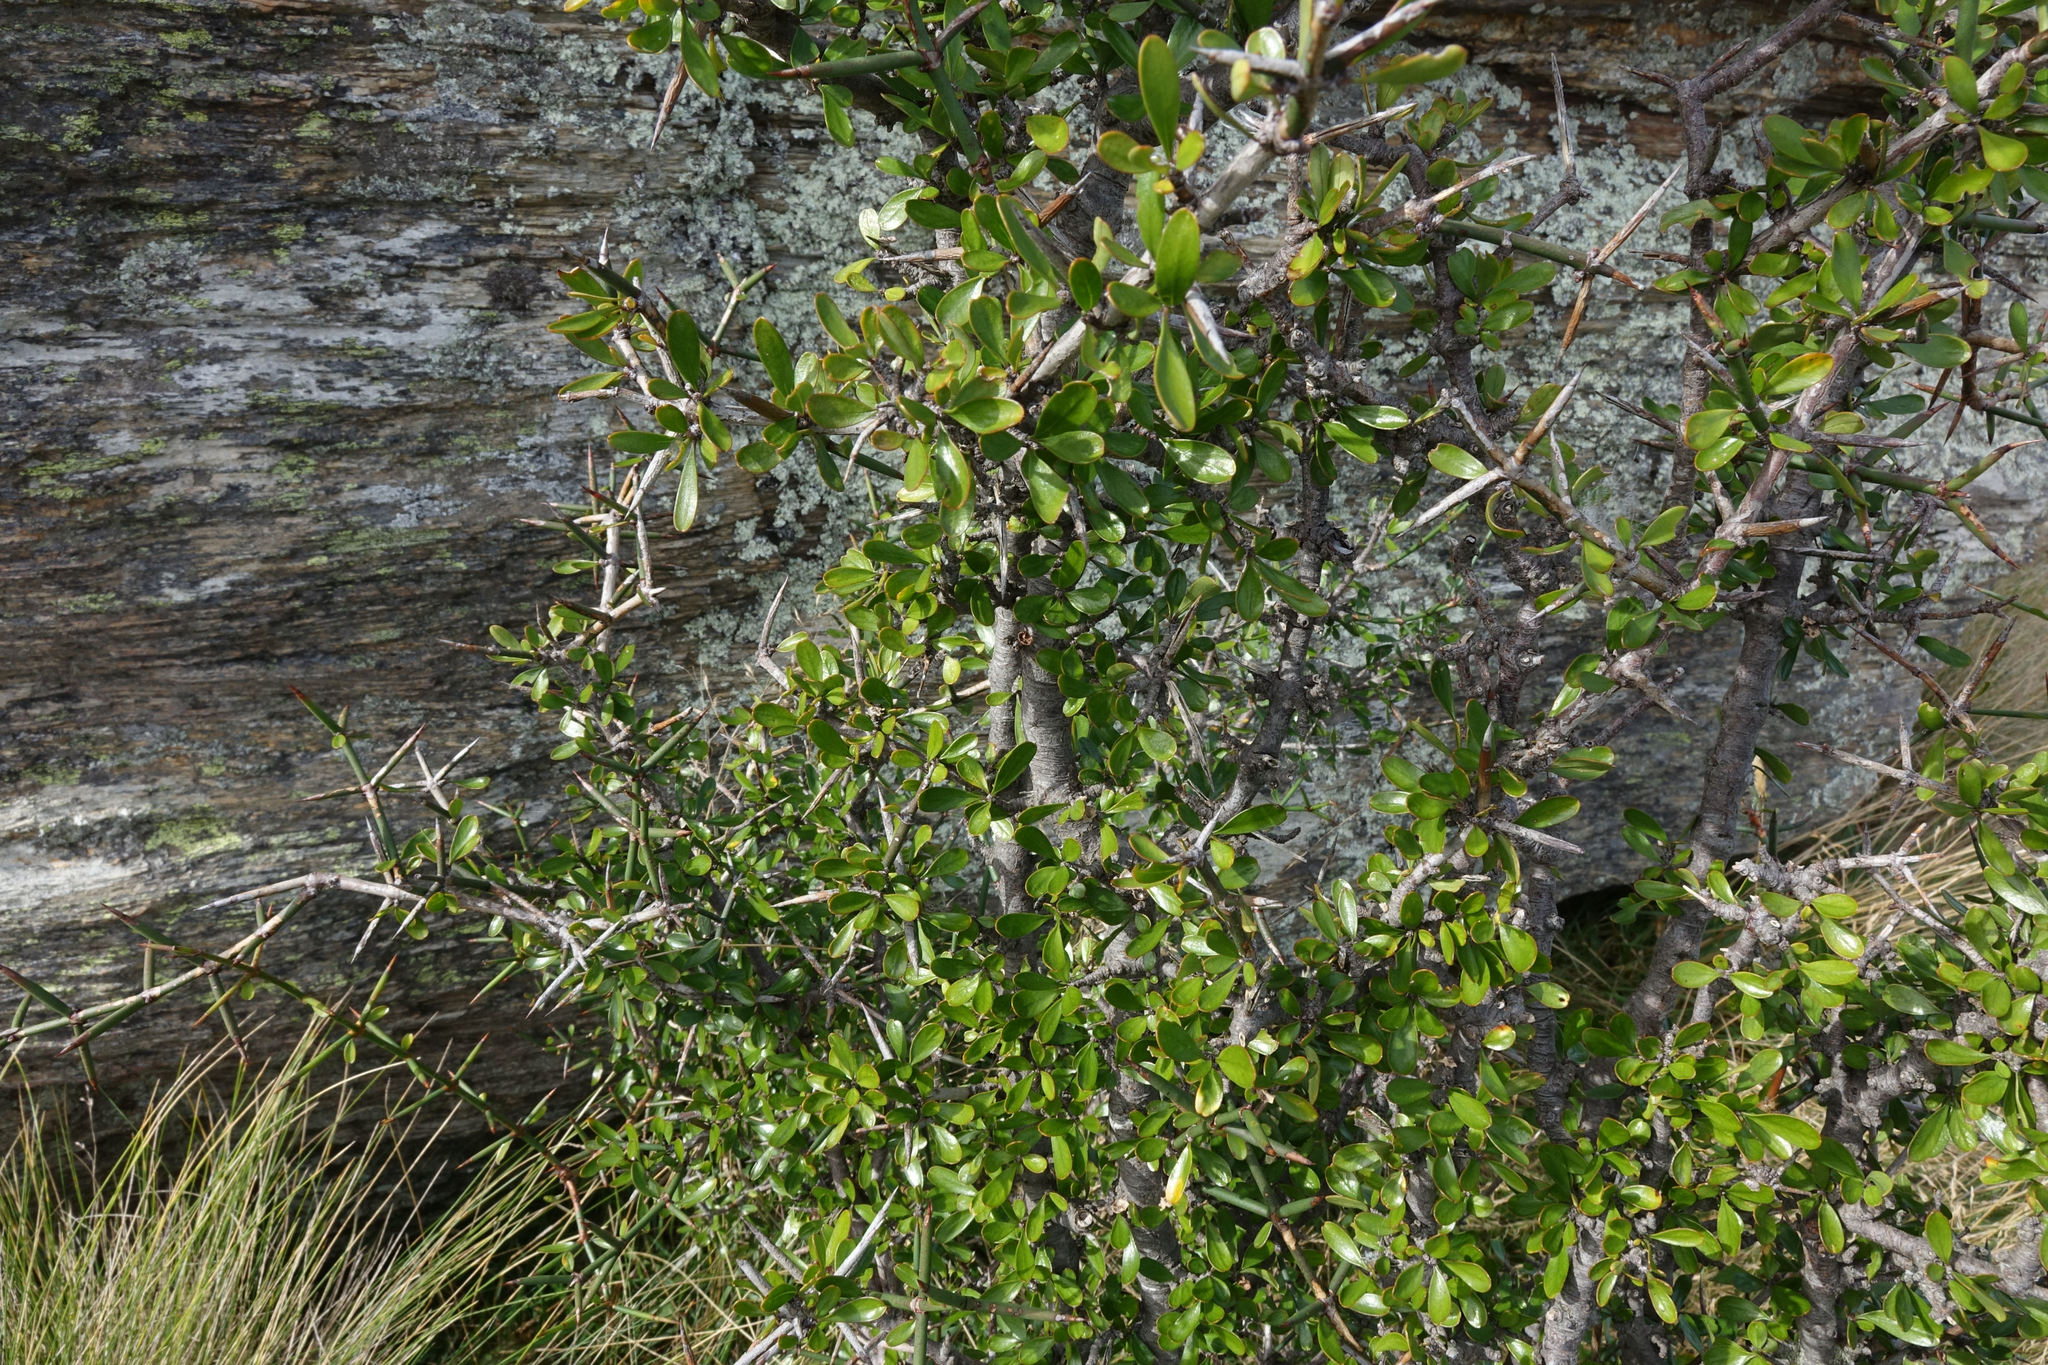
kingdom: Plantae
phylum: Tracheophyta
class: Magnoliopsida
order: Rosales
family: Rhamnaceae
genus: Discaria
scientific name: Discaria toumatou
